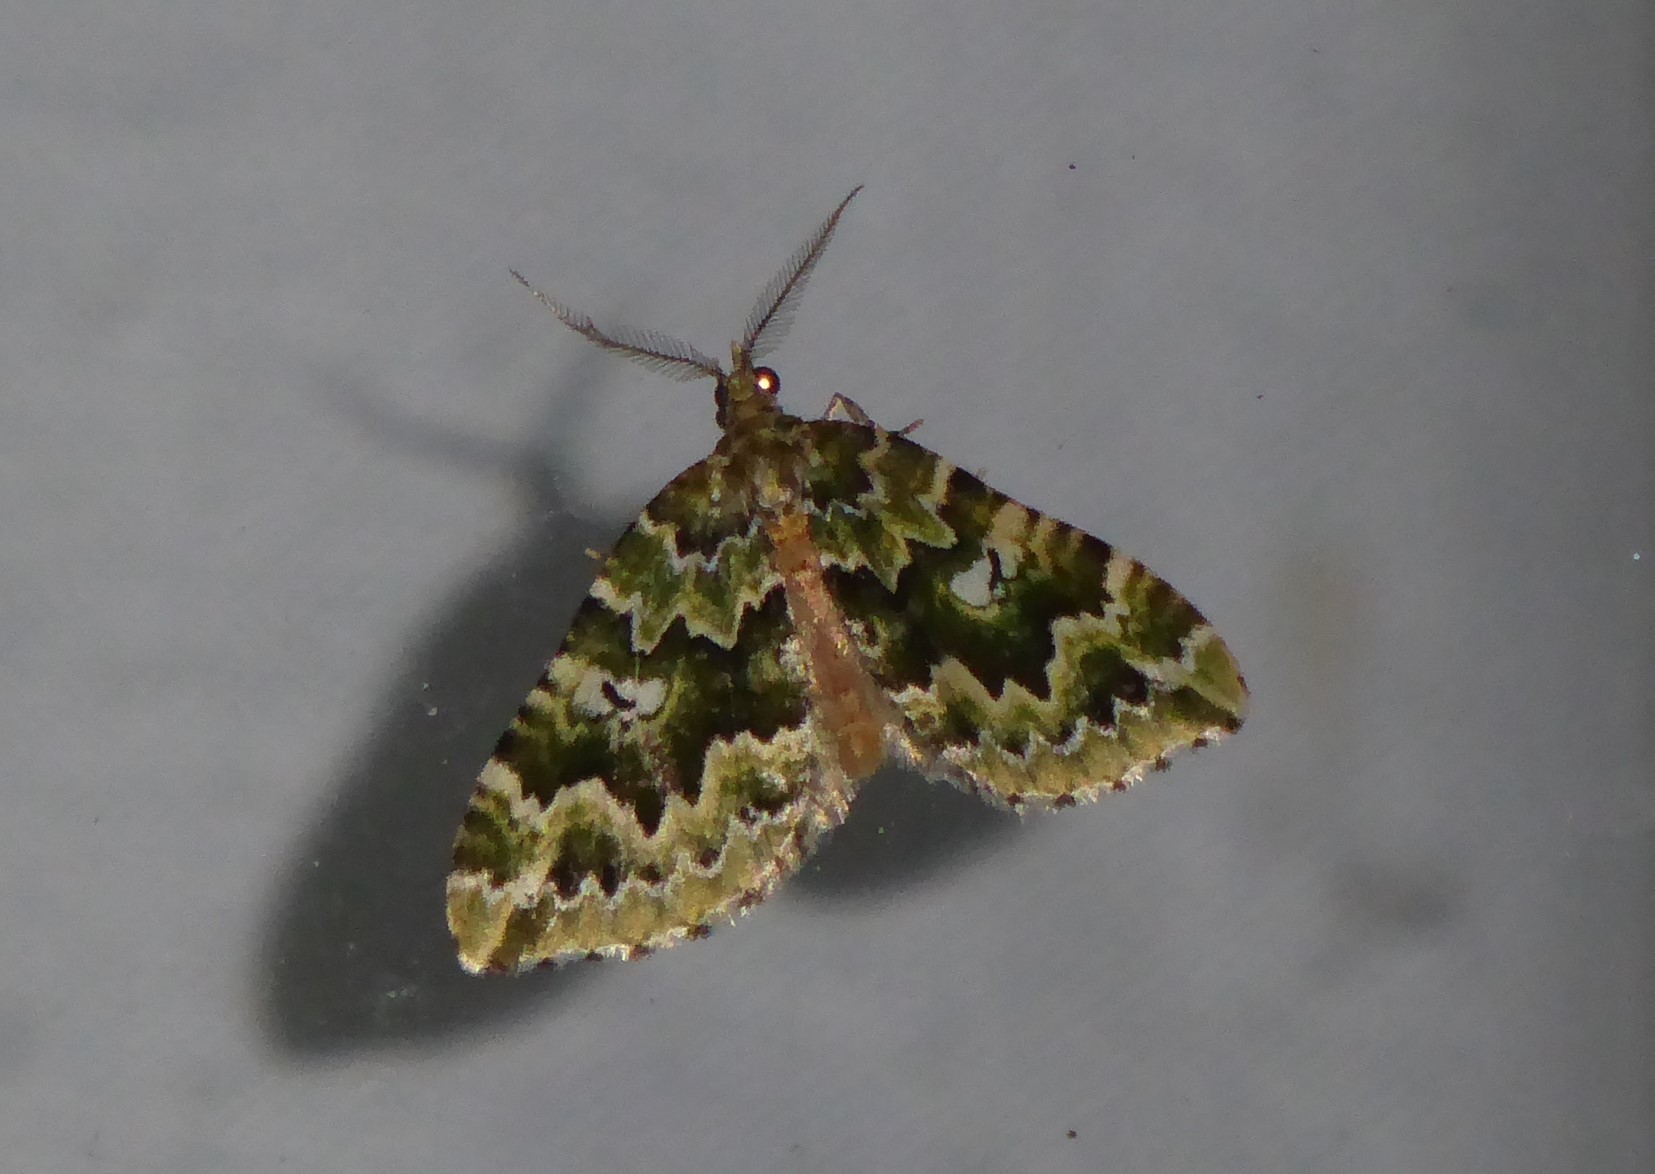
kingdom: Animalia
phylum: Arthropoda
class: Insecta
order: Lepidoptera
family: Geometridae
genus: Asaphodes
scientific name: Asaphodes beata
